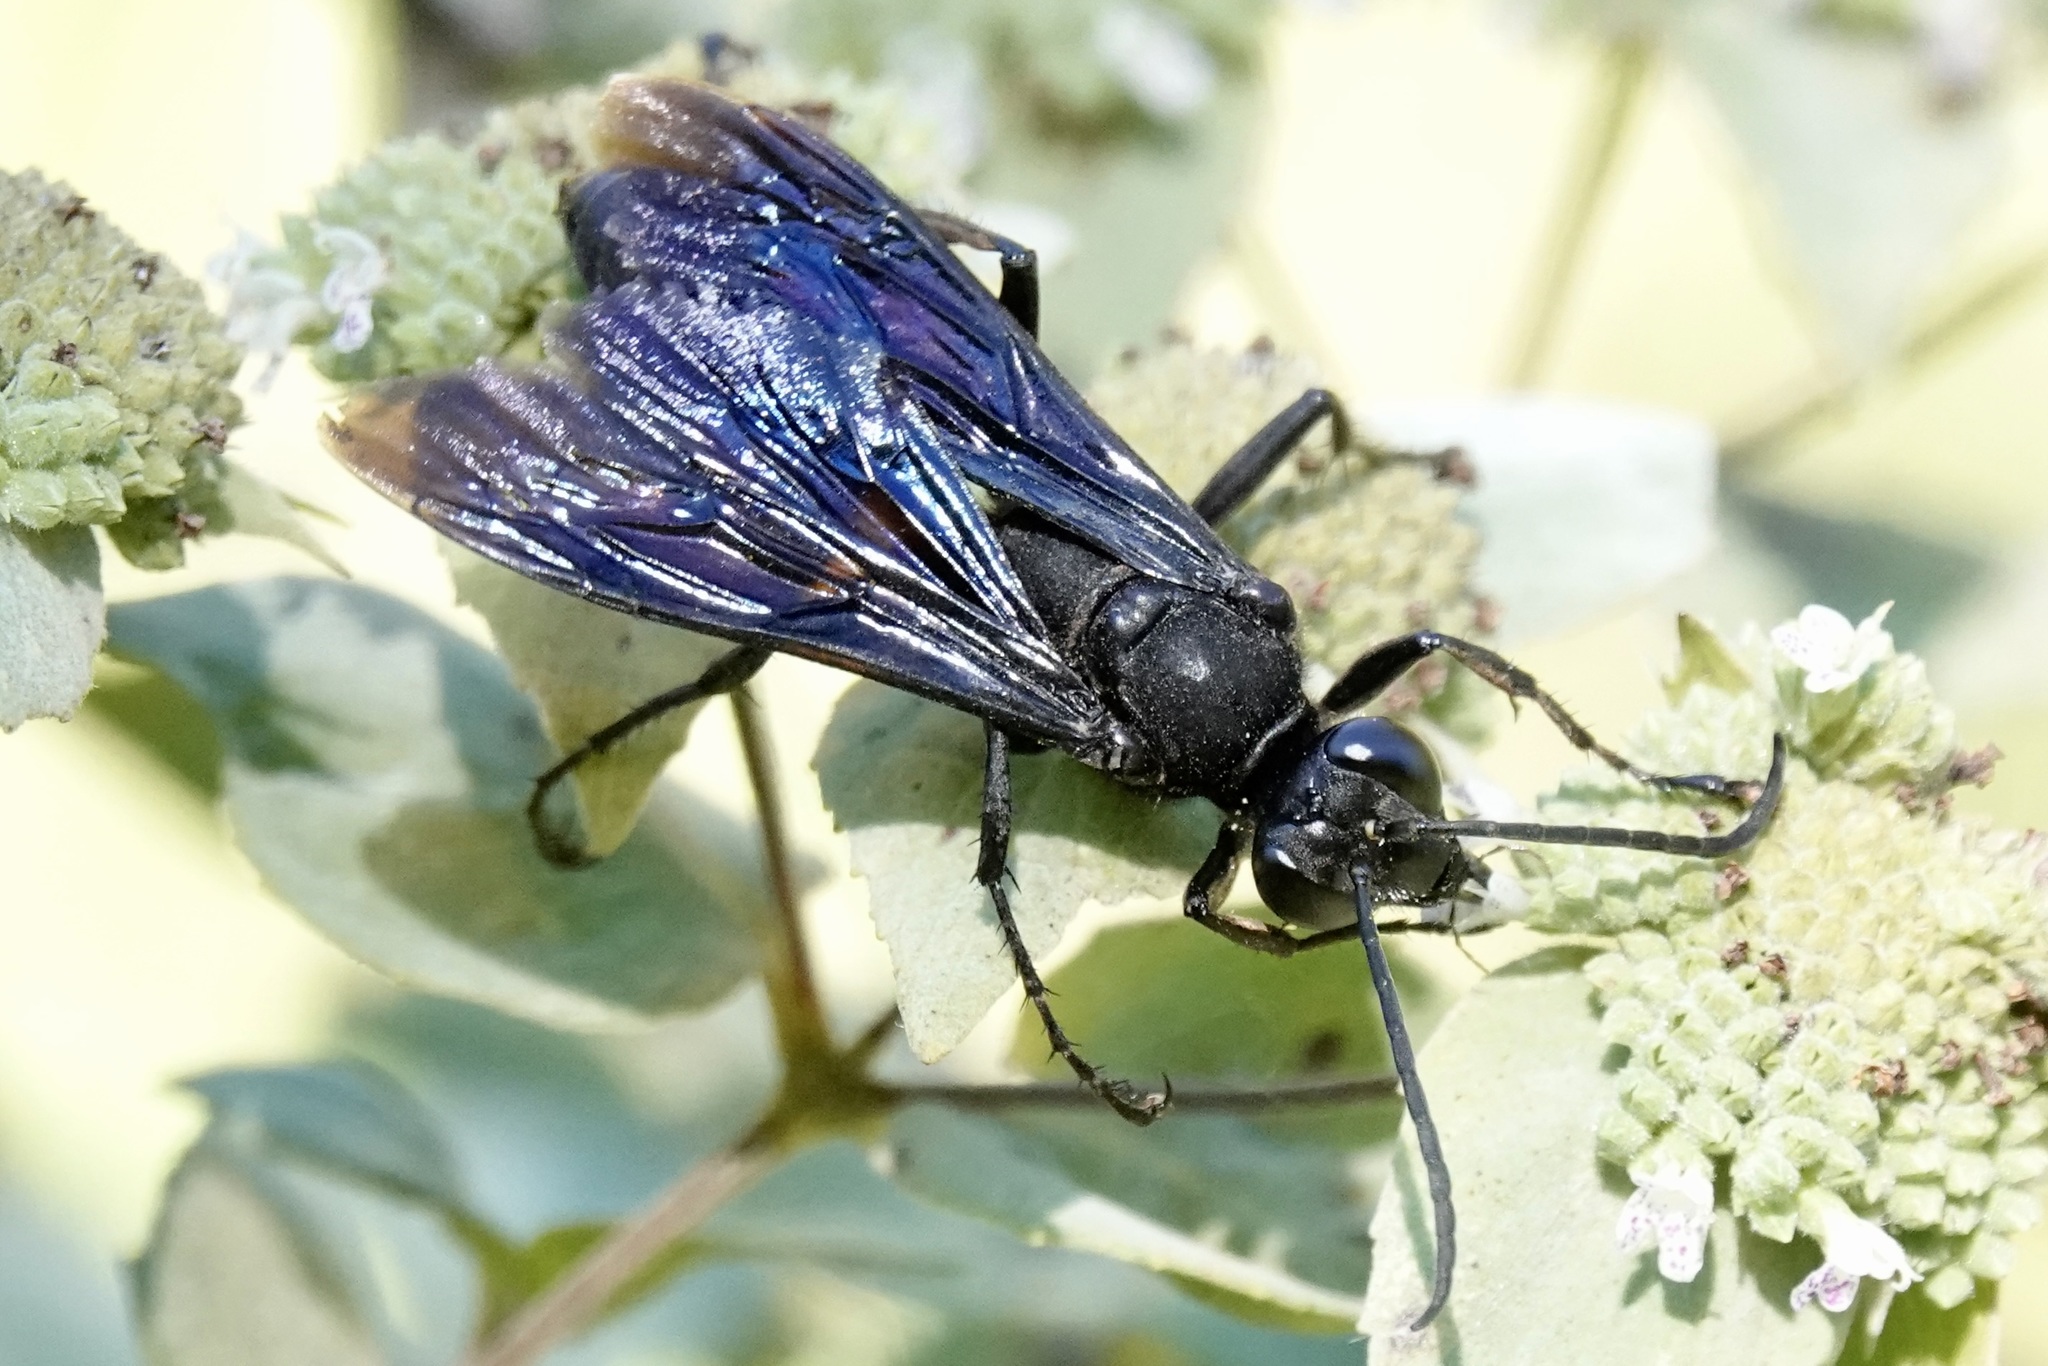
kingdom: Animalia
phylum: Arthropoda
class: Insecta
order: Hymenoptera
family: Sphecidae
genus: Sphex
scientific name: Sphex pensylvanicus
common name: Great black digger wasp
